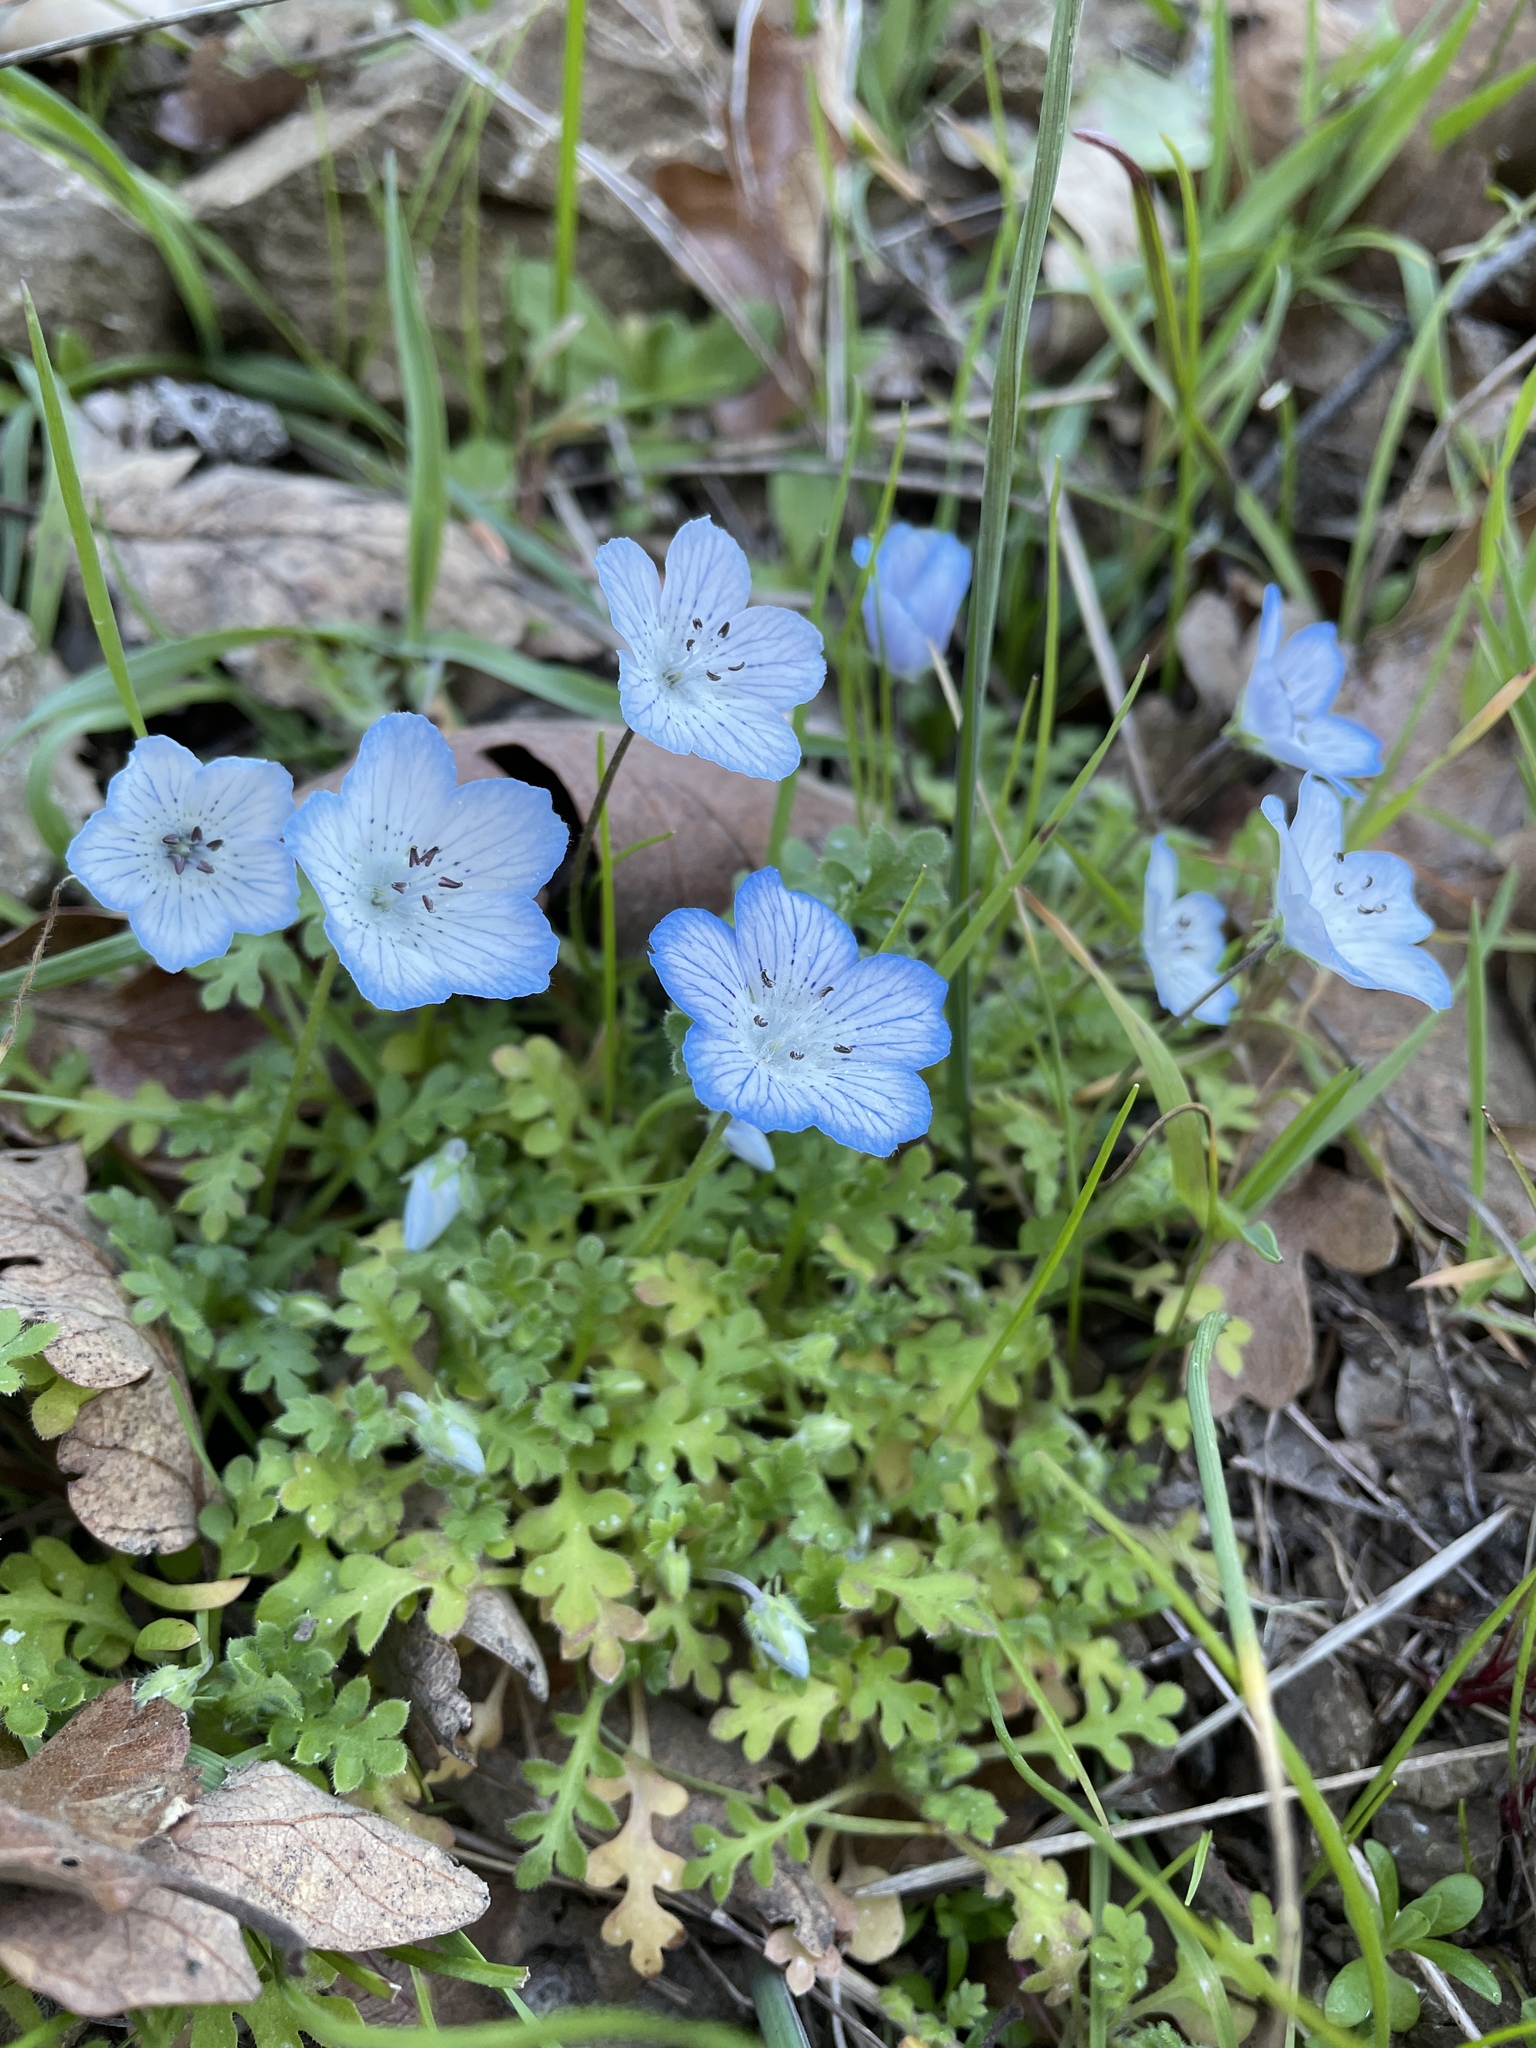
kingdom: Plantae
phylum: Tracheophyta
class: Magnoliopsida
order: Boraginales
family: Hydrophyllaceae
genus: Nemophila
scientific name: Nemophila menziesii
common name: Baby's-blue-eyes
